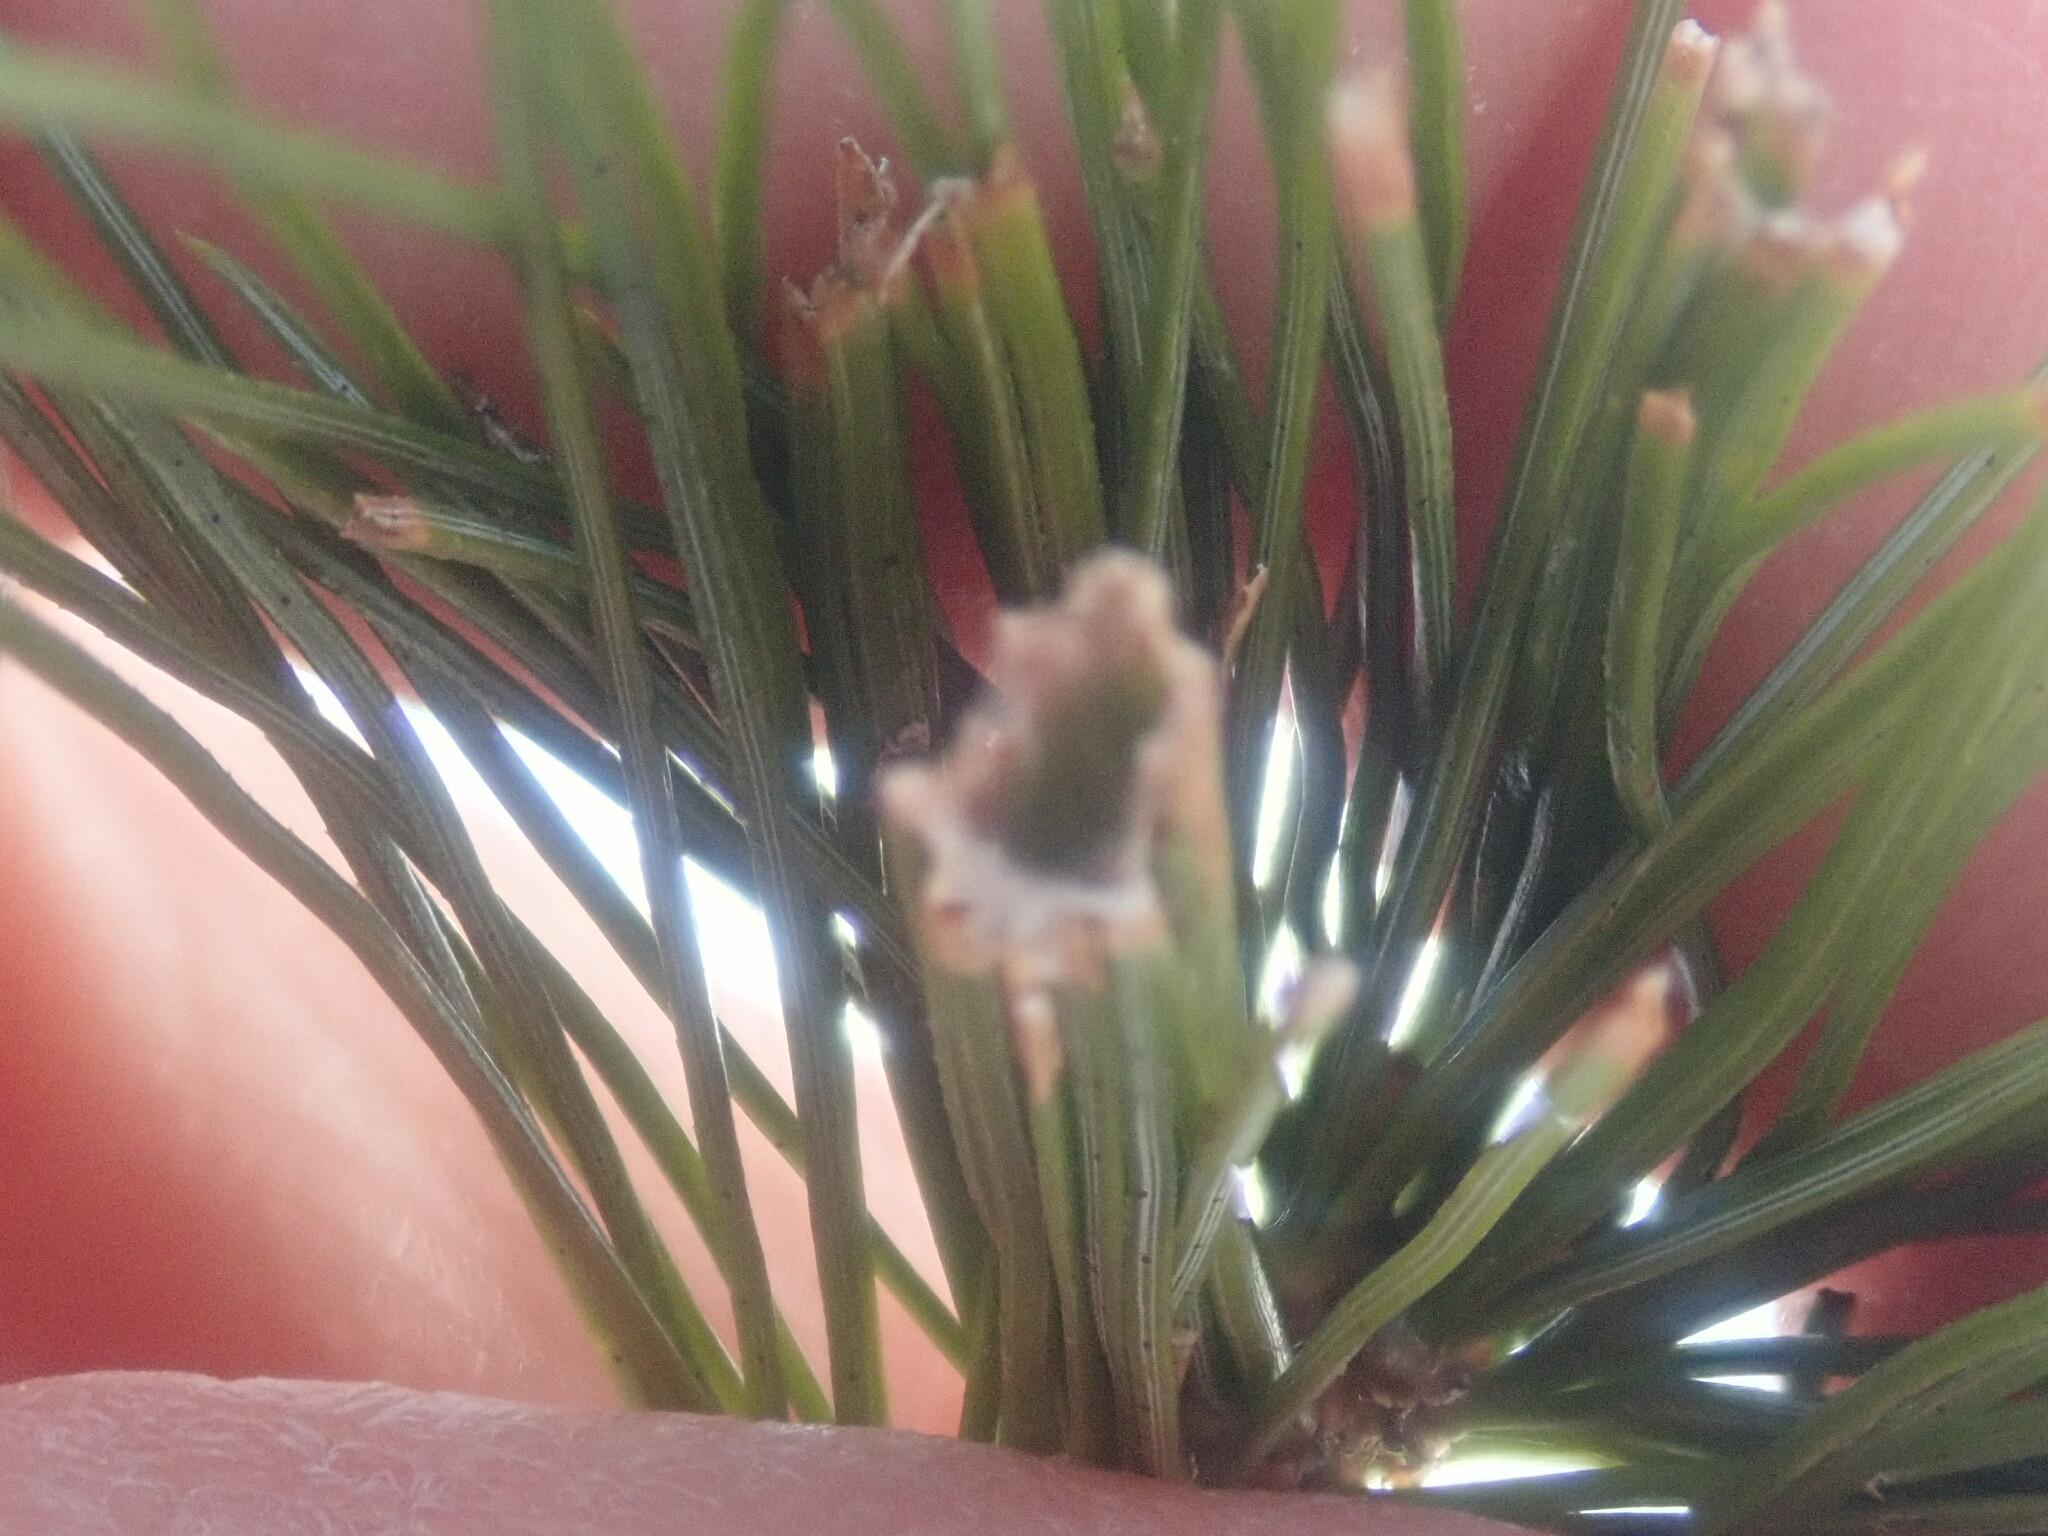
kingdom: Animalia
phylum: Arthropoda
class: Insecta
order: Lepidoptera
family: Tortricidae
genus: Argyrotaenia
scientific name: Argyrotaenia pinatubana
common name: Pine tube moth
